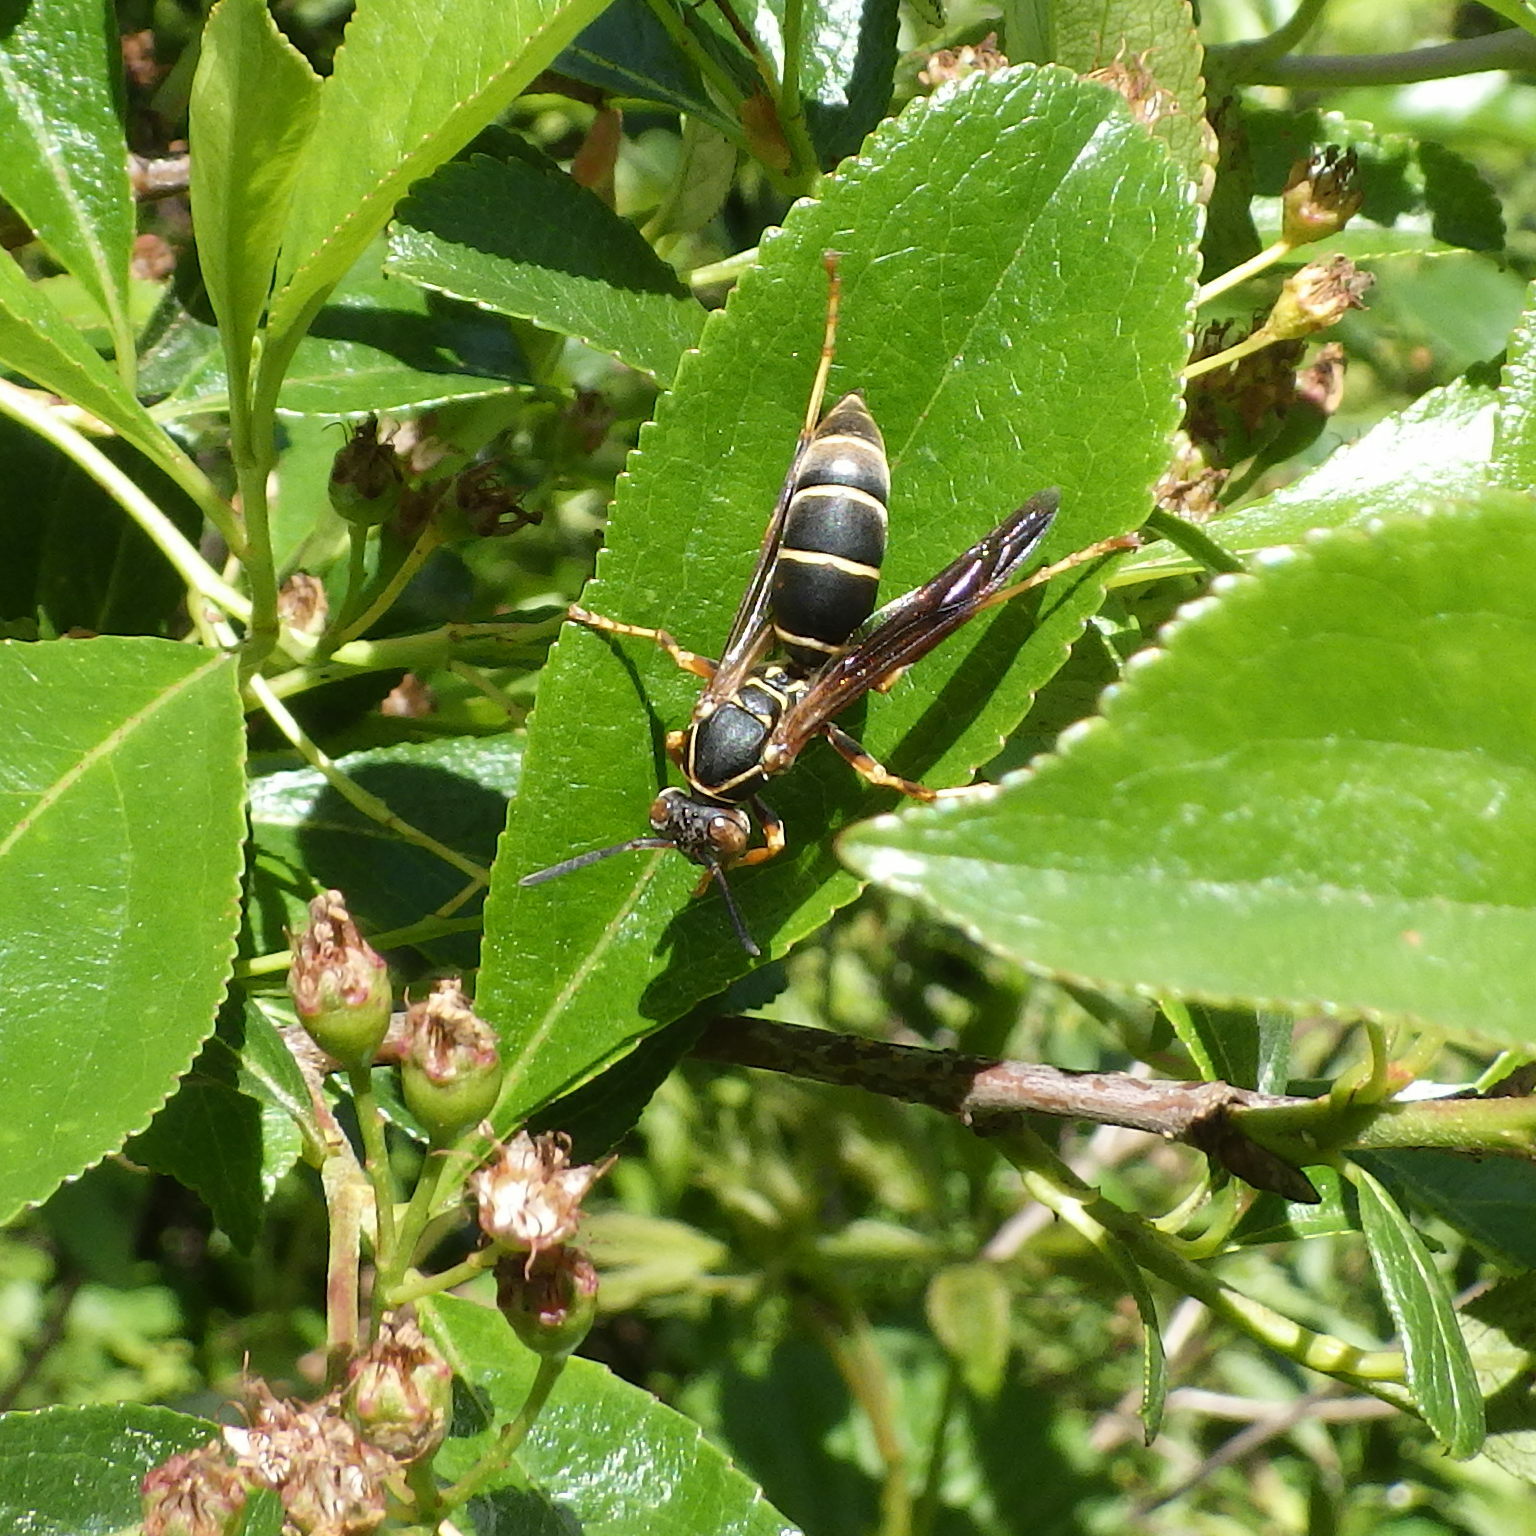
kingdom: Animalia
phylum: Arthropoda
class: Insecta
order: Hymenoptera
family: Eumenidae
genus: Polistes
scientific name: Polistes fuscatus
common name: Dark paper wasp
